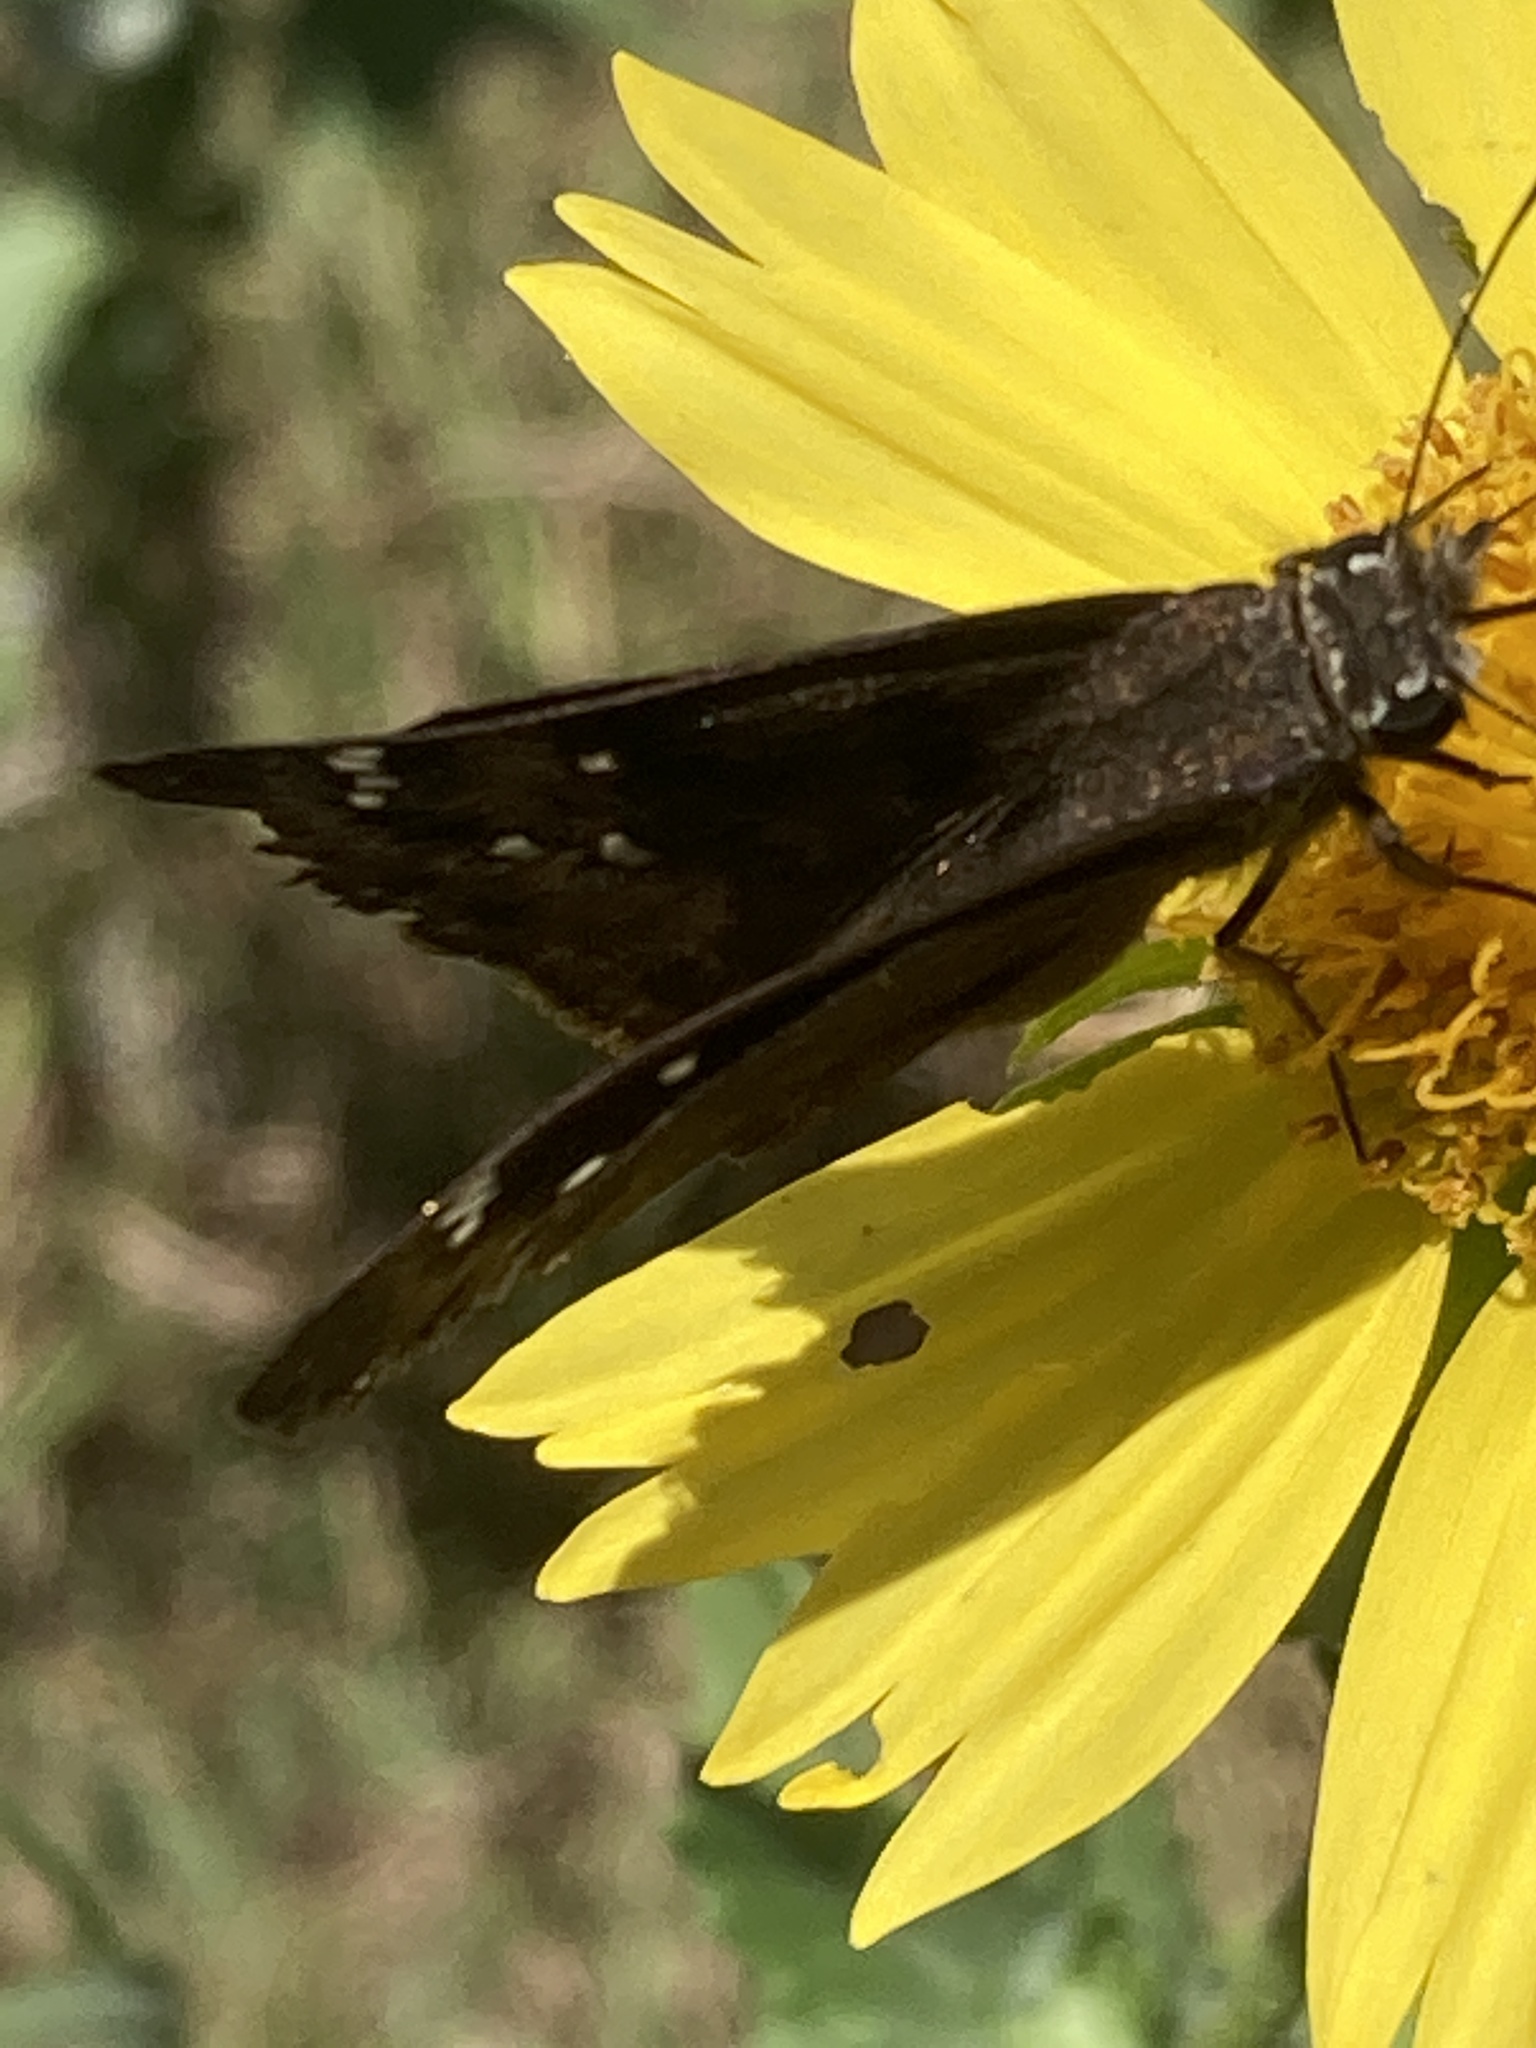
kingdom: Animalia
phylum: Arthropoda
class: Insecta
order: Lepidoptera
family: Hesperiidae
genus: Erynnis
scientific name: Erynnis horatius
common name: Horace's duskywing
